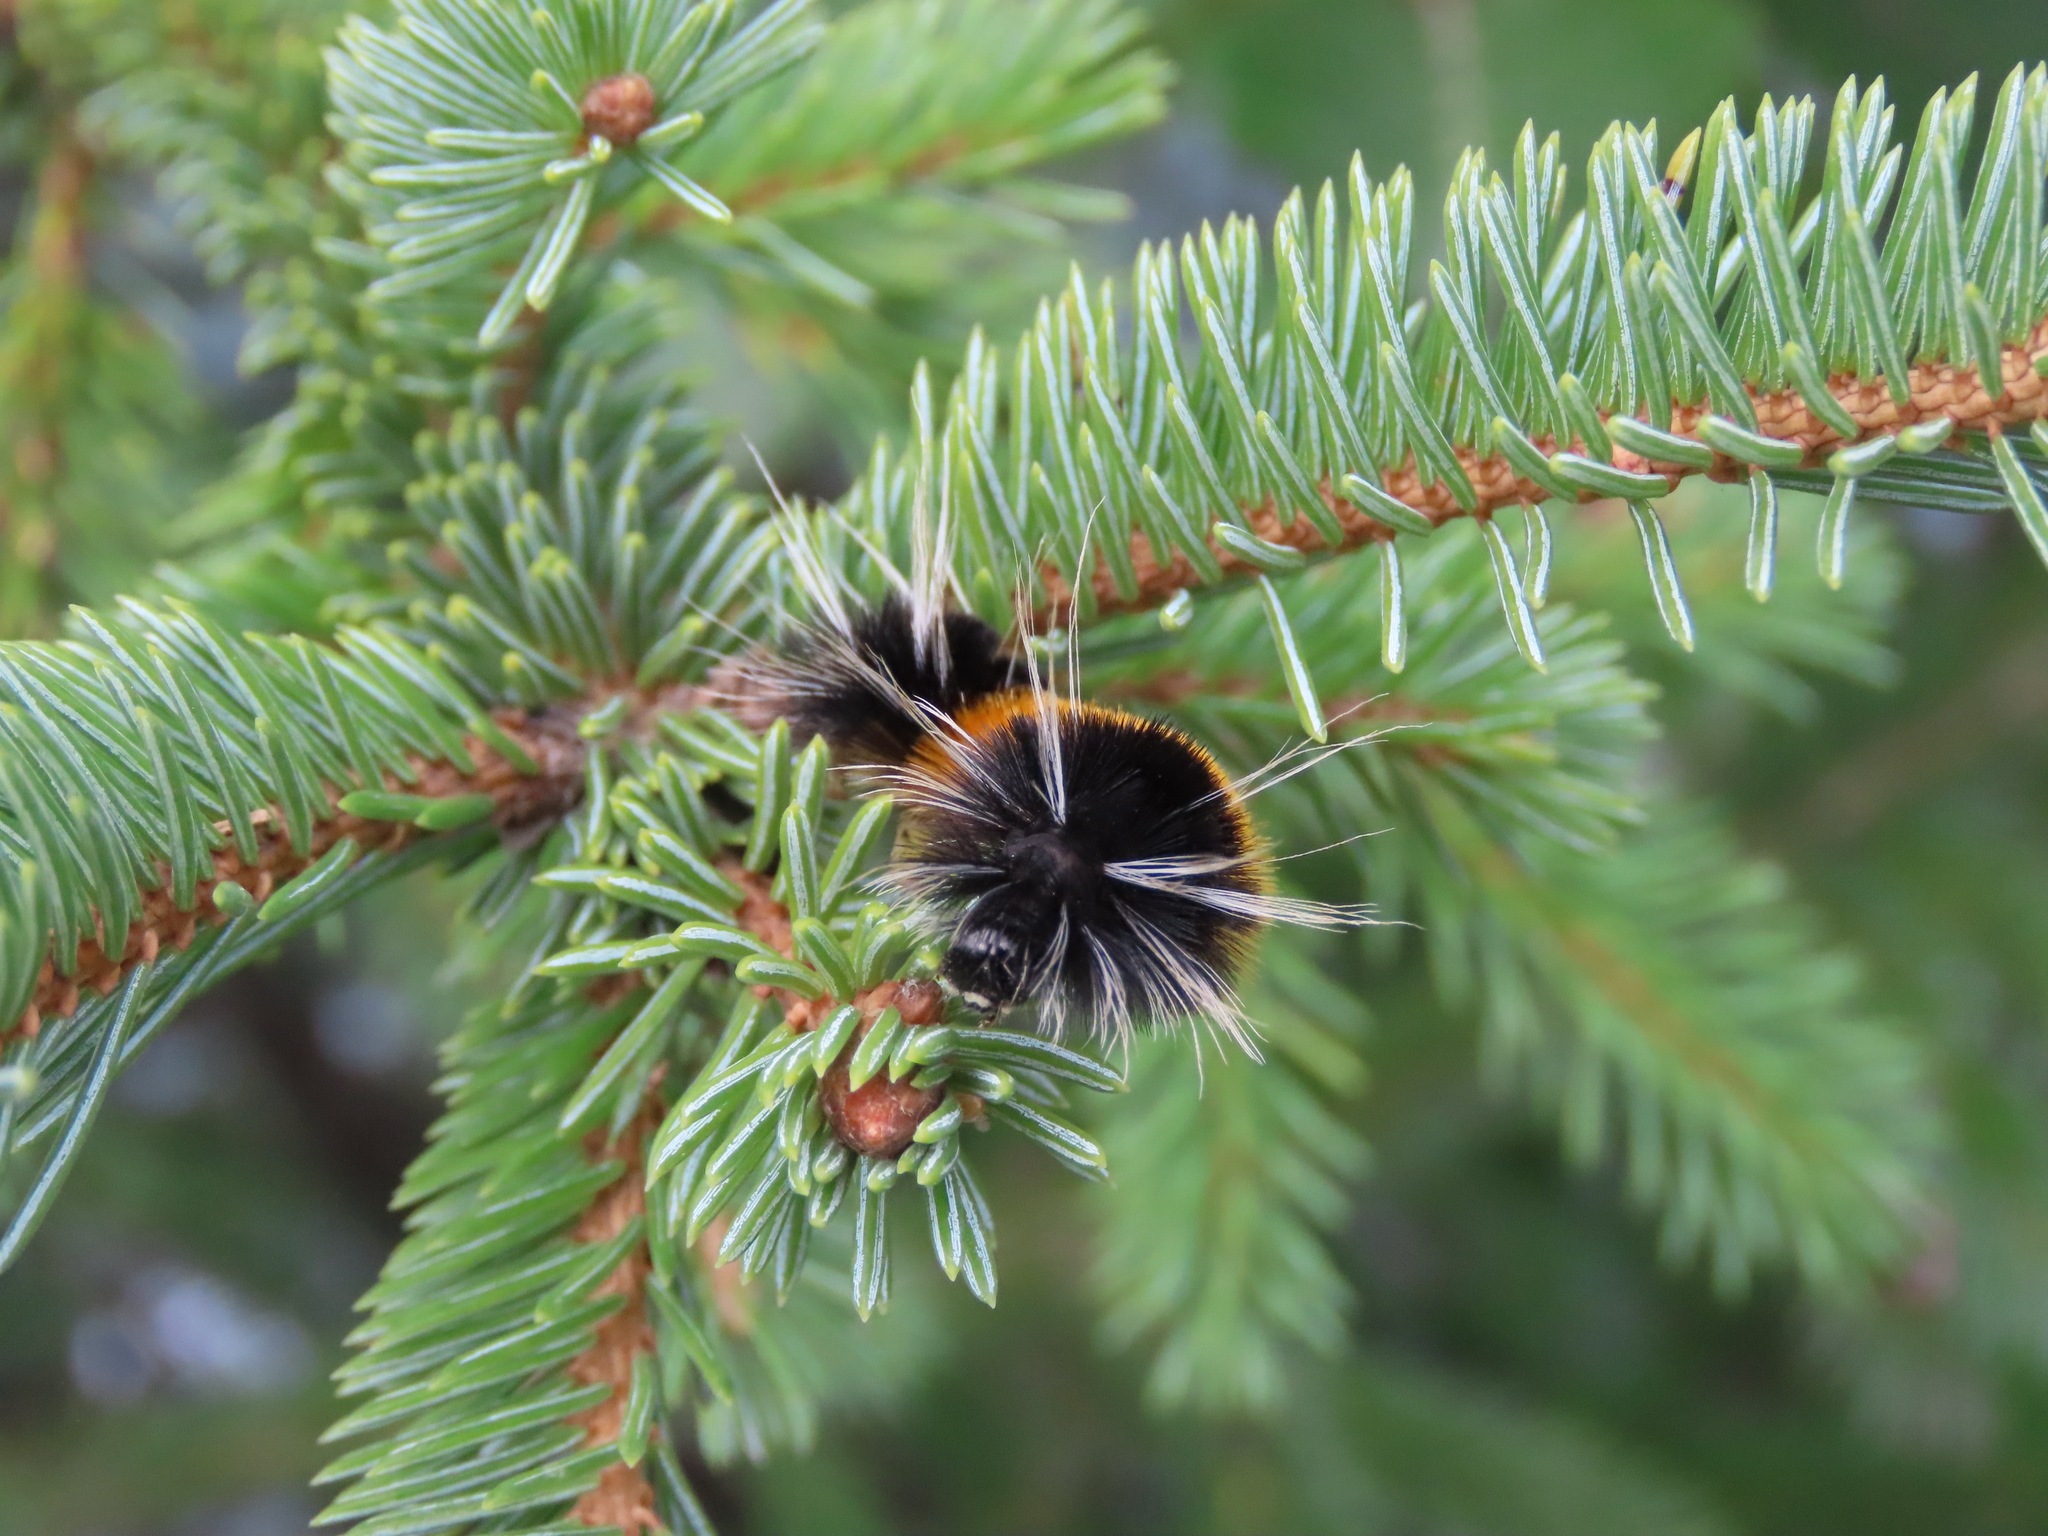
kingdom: Animalia
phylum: Arthropoda
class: Insecta
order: Lepidoptera
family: Erebidae
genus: Lophocampa
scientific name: Lophocampa maculata
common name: Spotted tussock moth
